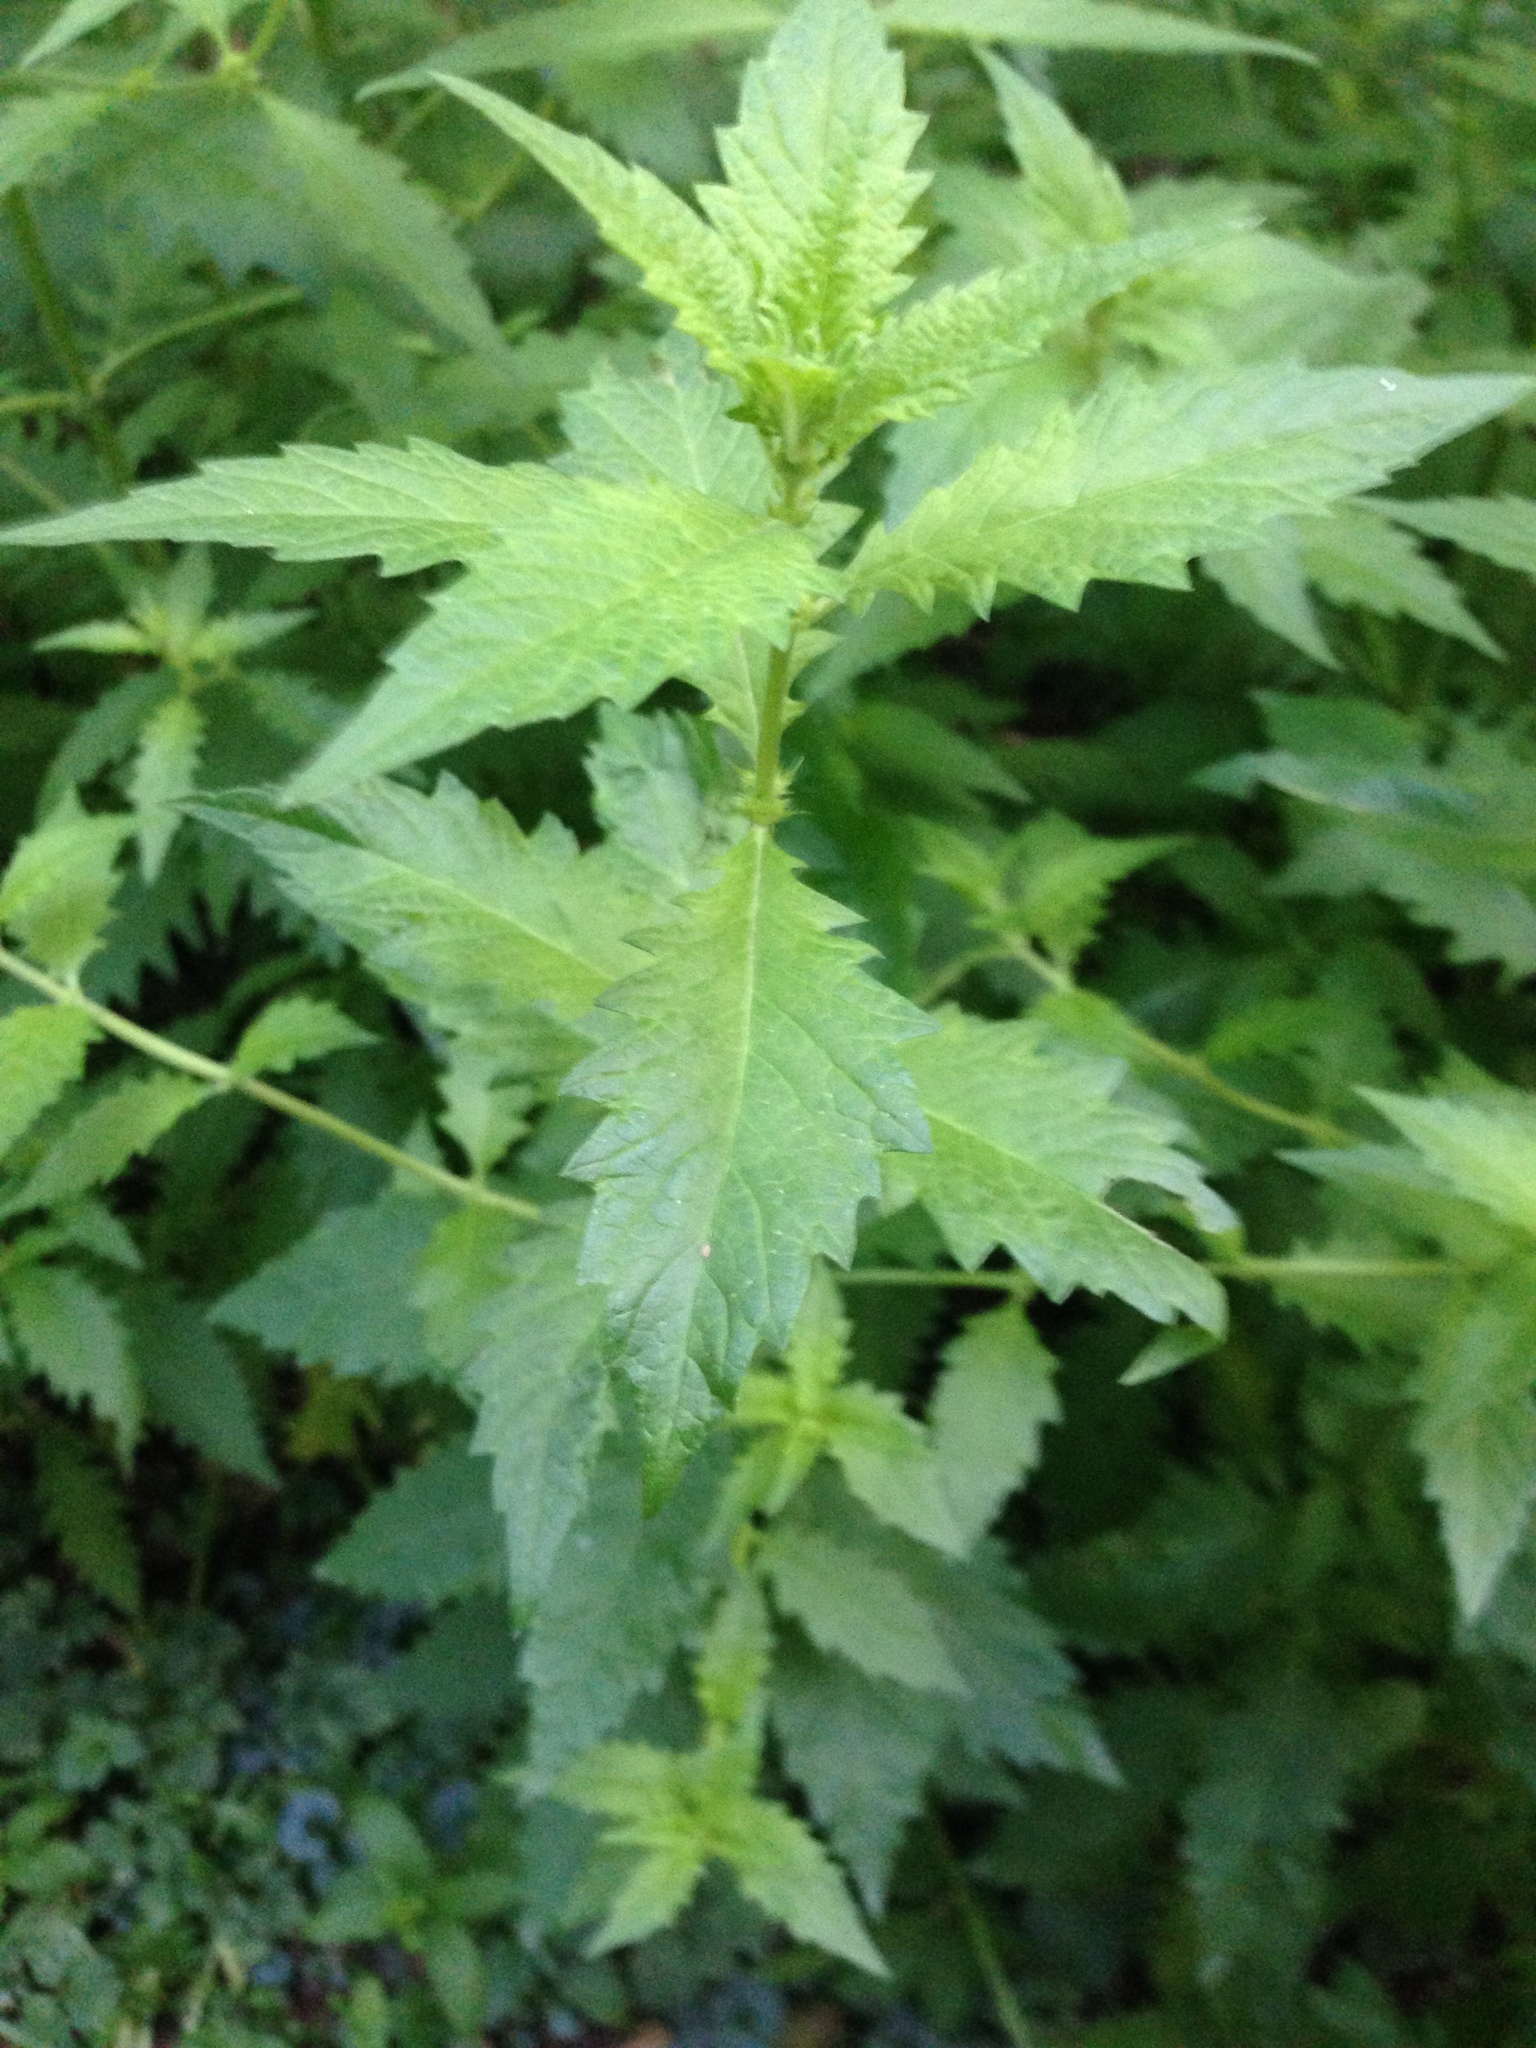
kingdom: Plantae
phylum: Tracheophyta
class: Magnoliopsida
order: Lamiales
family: Lamiaceae
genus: Lycopus
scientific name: Lycopus europaeus
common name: European bugleweed
